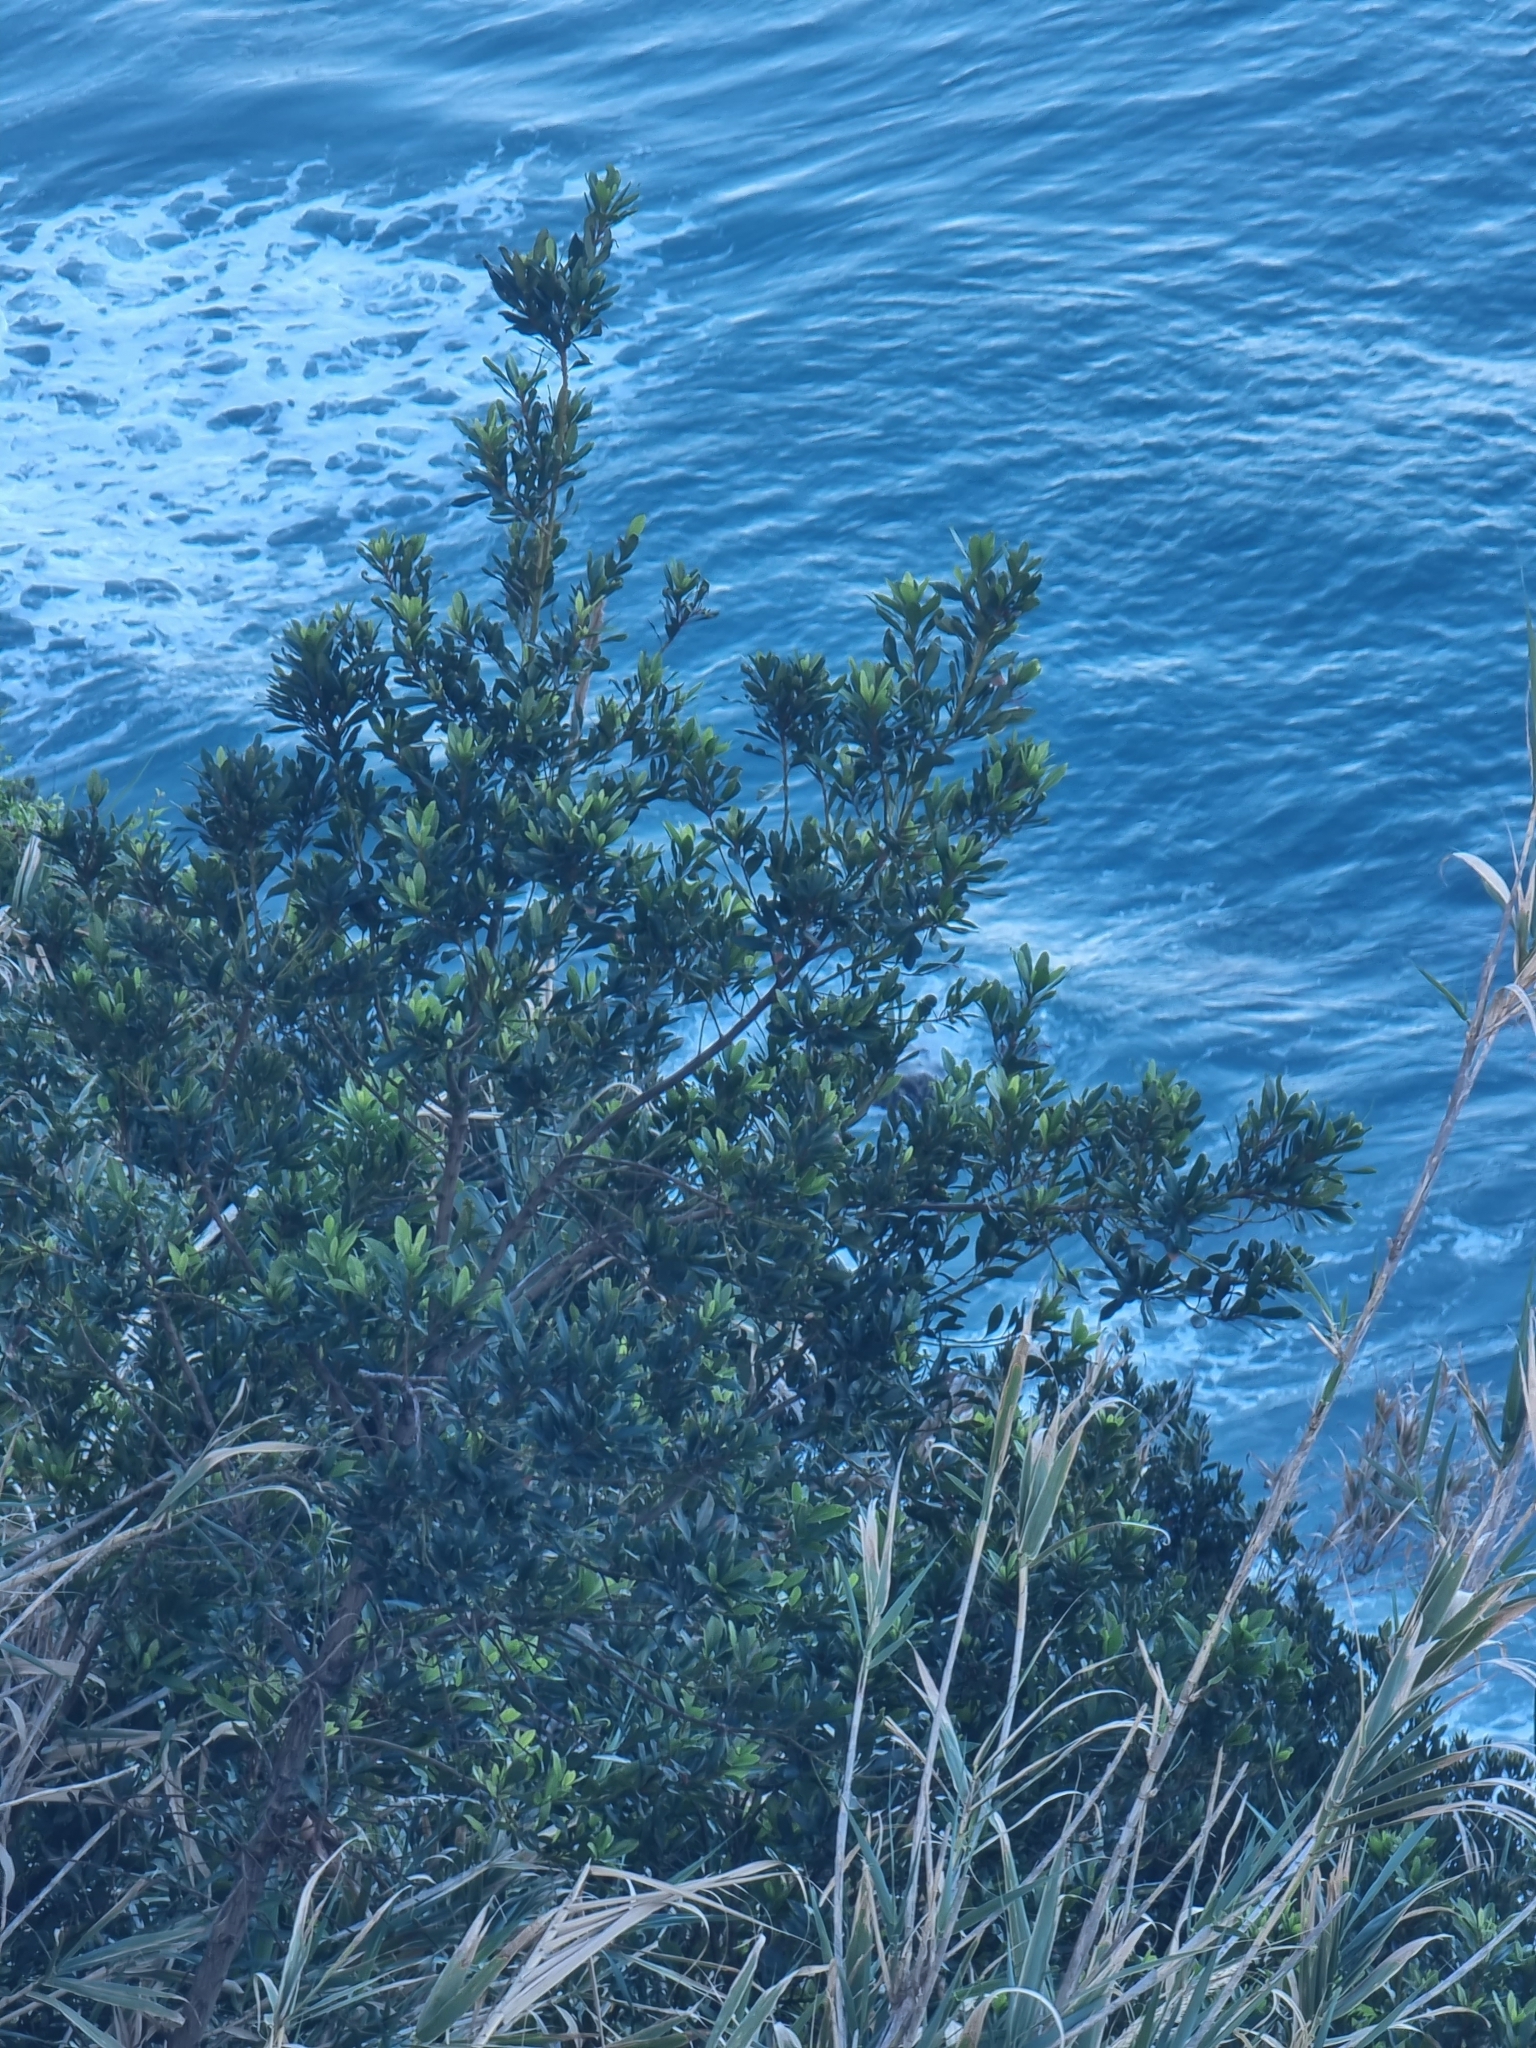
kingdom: Plantae
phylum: Tracheophyta
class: Magnoliopsida
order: Fagales
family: Myricaceae
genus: Morella
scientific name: Morella faya
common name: Firetree
